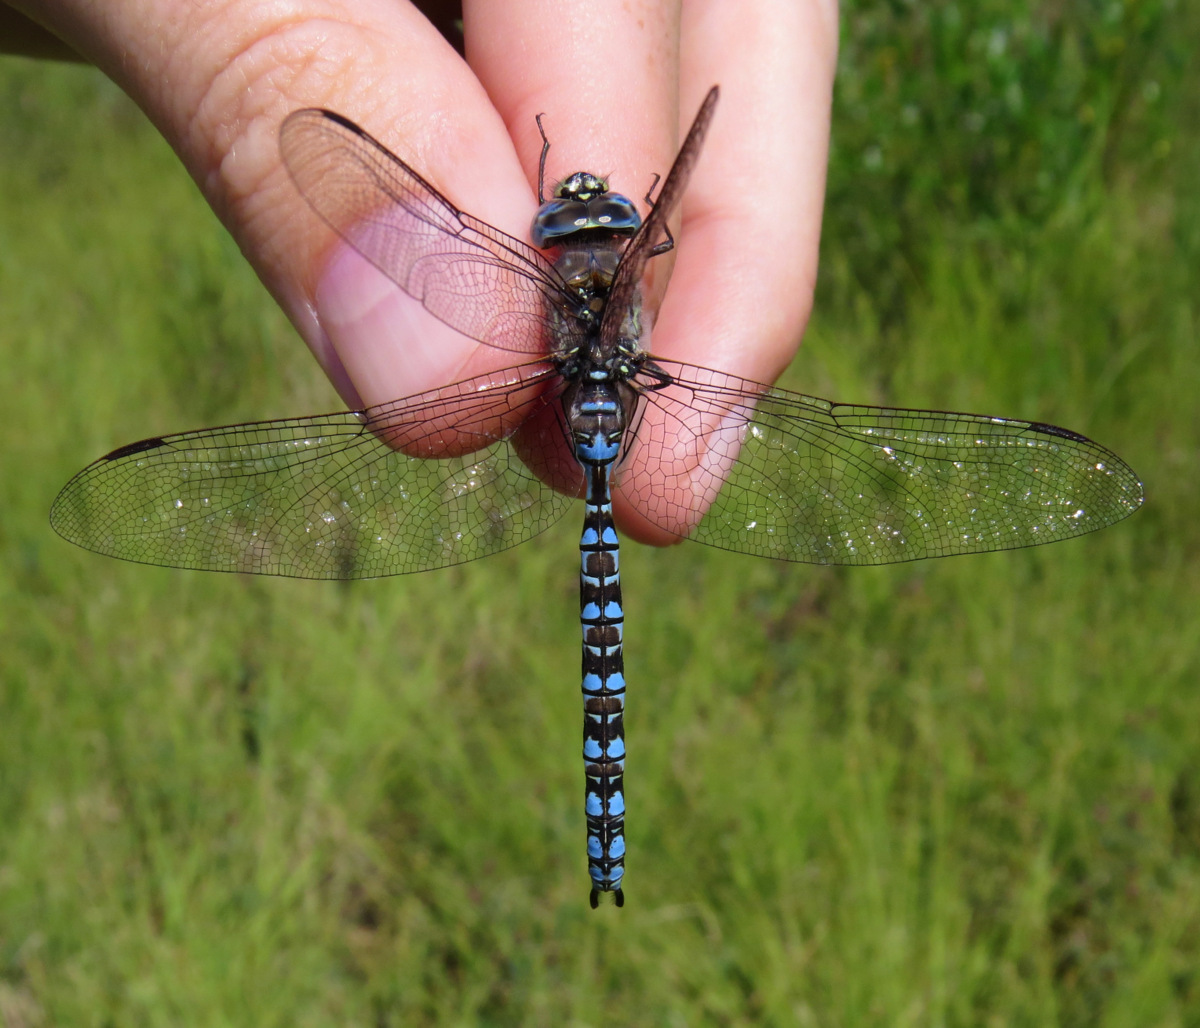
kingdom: Animalia
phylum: Arthropoda
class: Insecta
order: Odonata
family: Aeshnidae
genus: Aeshna
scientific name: Aeshna sitchensis
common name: Zigzag darner
